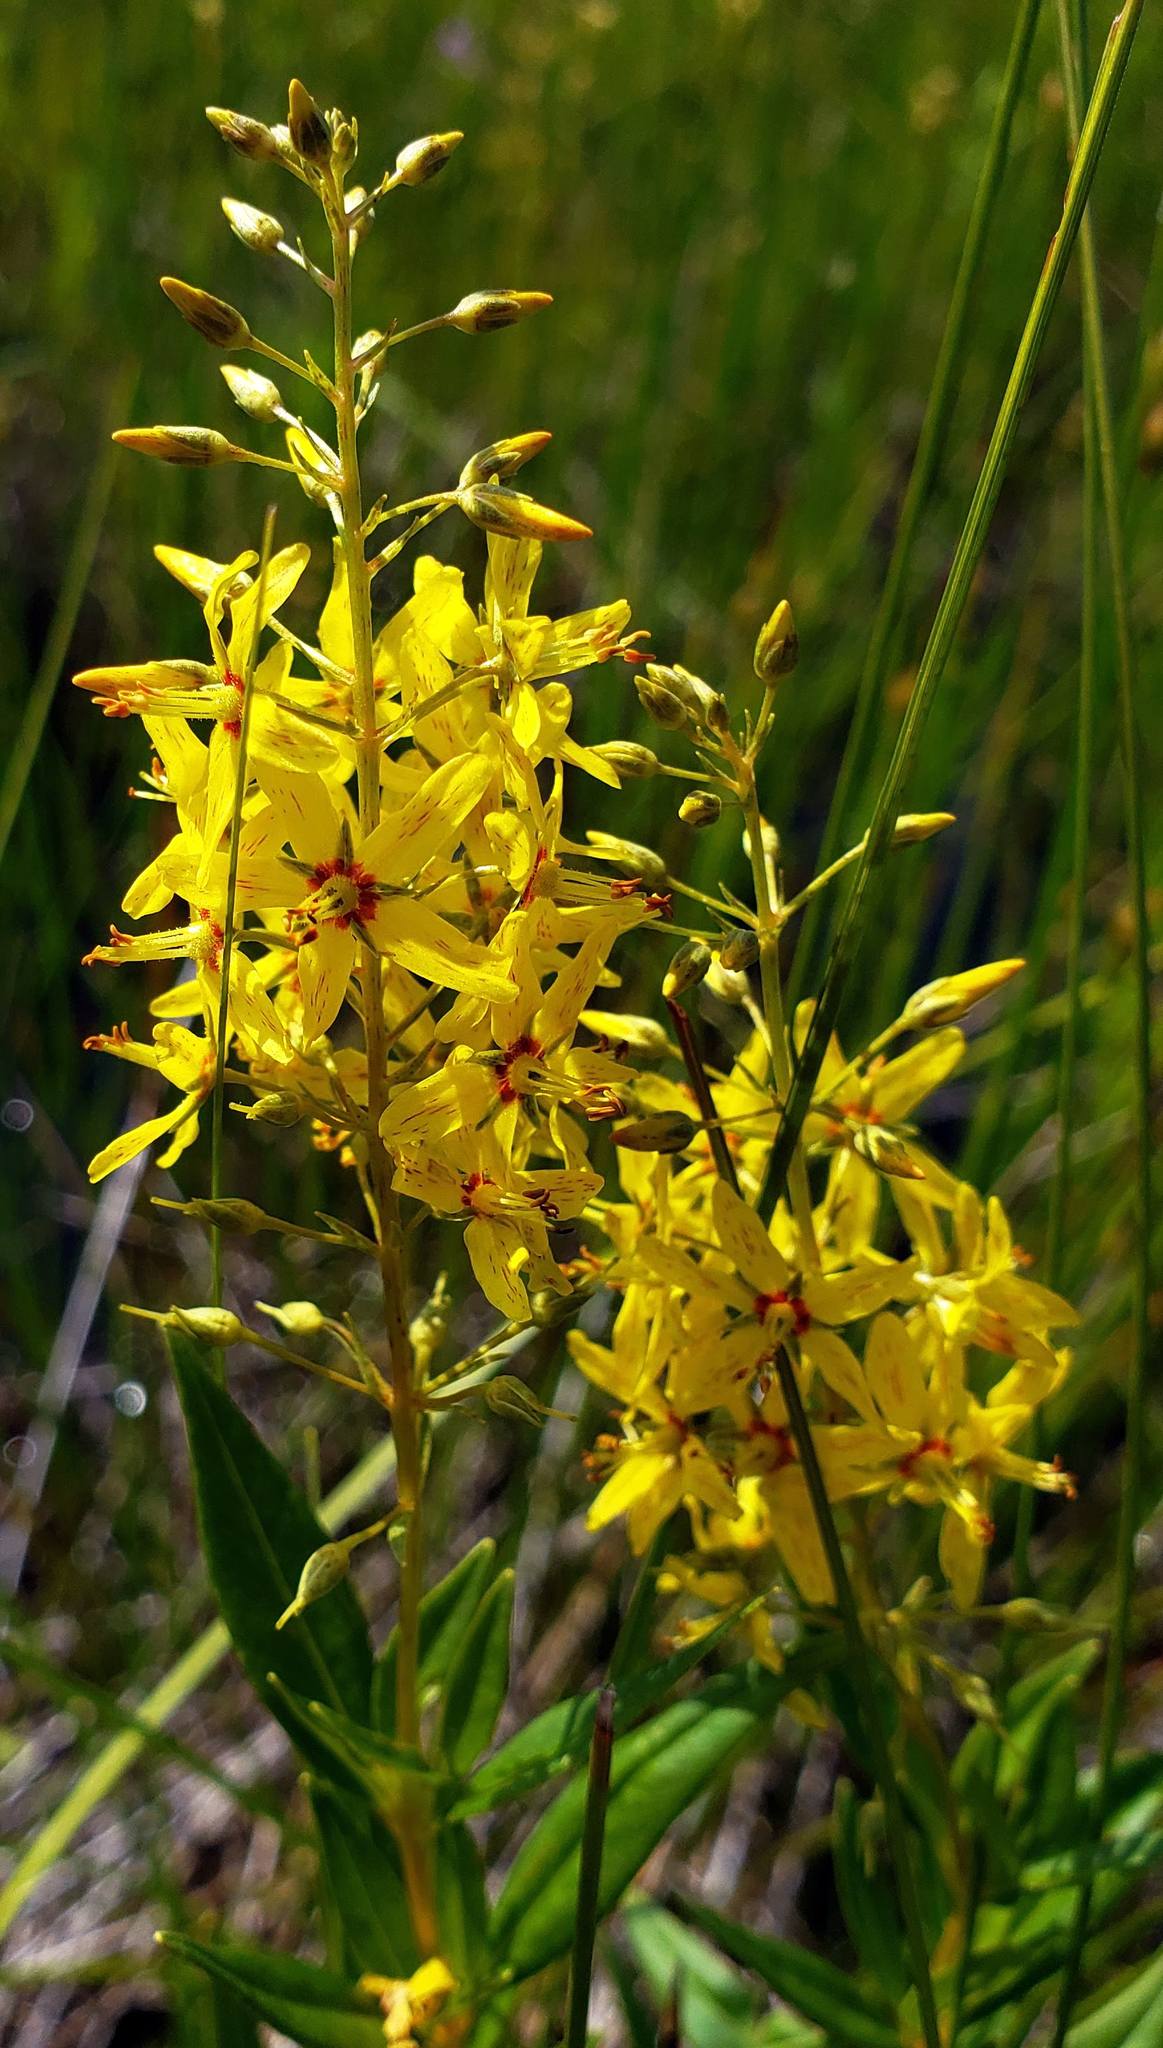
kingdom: Plantae
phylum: Tracheophyta
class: Magnoliopsida
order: Ericales
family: Primulaceae
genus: Lysimachia
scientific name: Lysimachia terrestris
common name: Lake loosestrife
